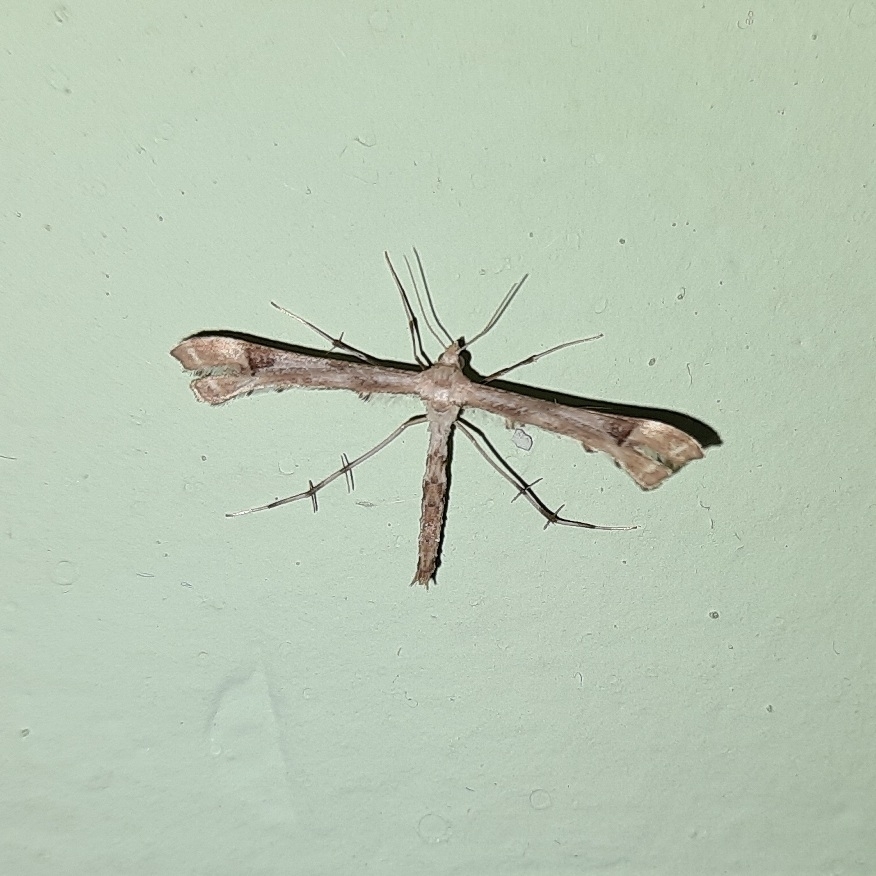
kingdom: Animalia
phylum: Arthropoda
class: Insecta
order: Lepidoptera
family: Pterophoridae
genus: Platyptilia
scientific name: Platyptilia gonodactyla
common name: Triangle plume
